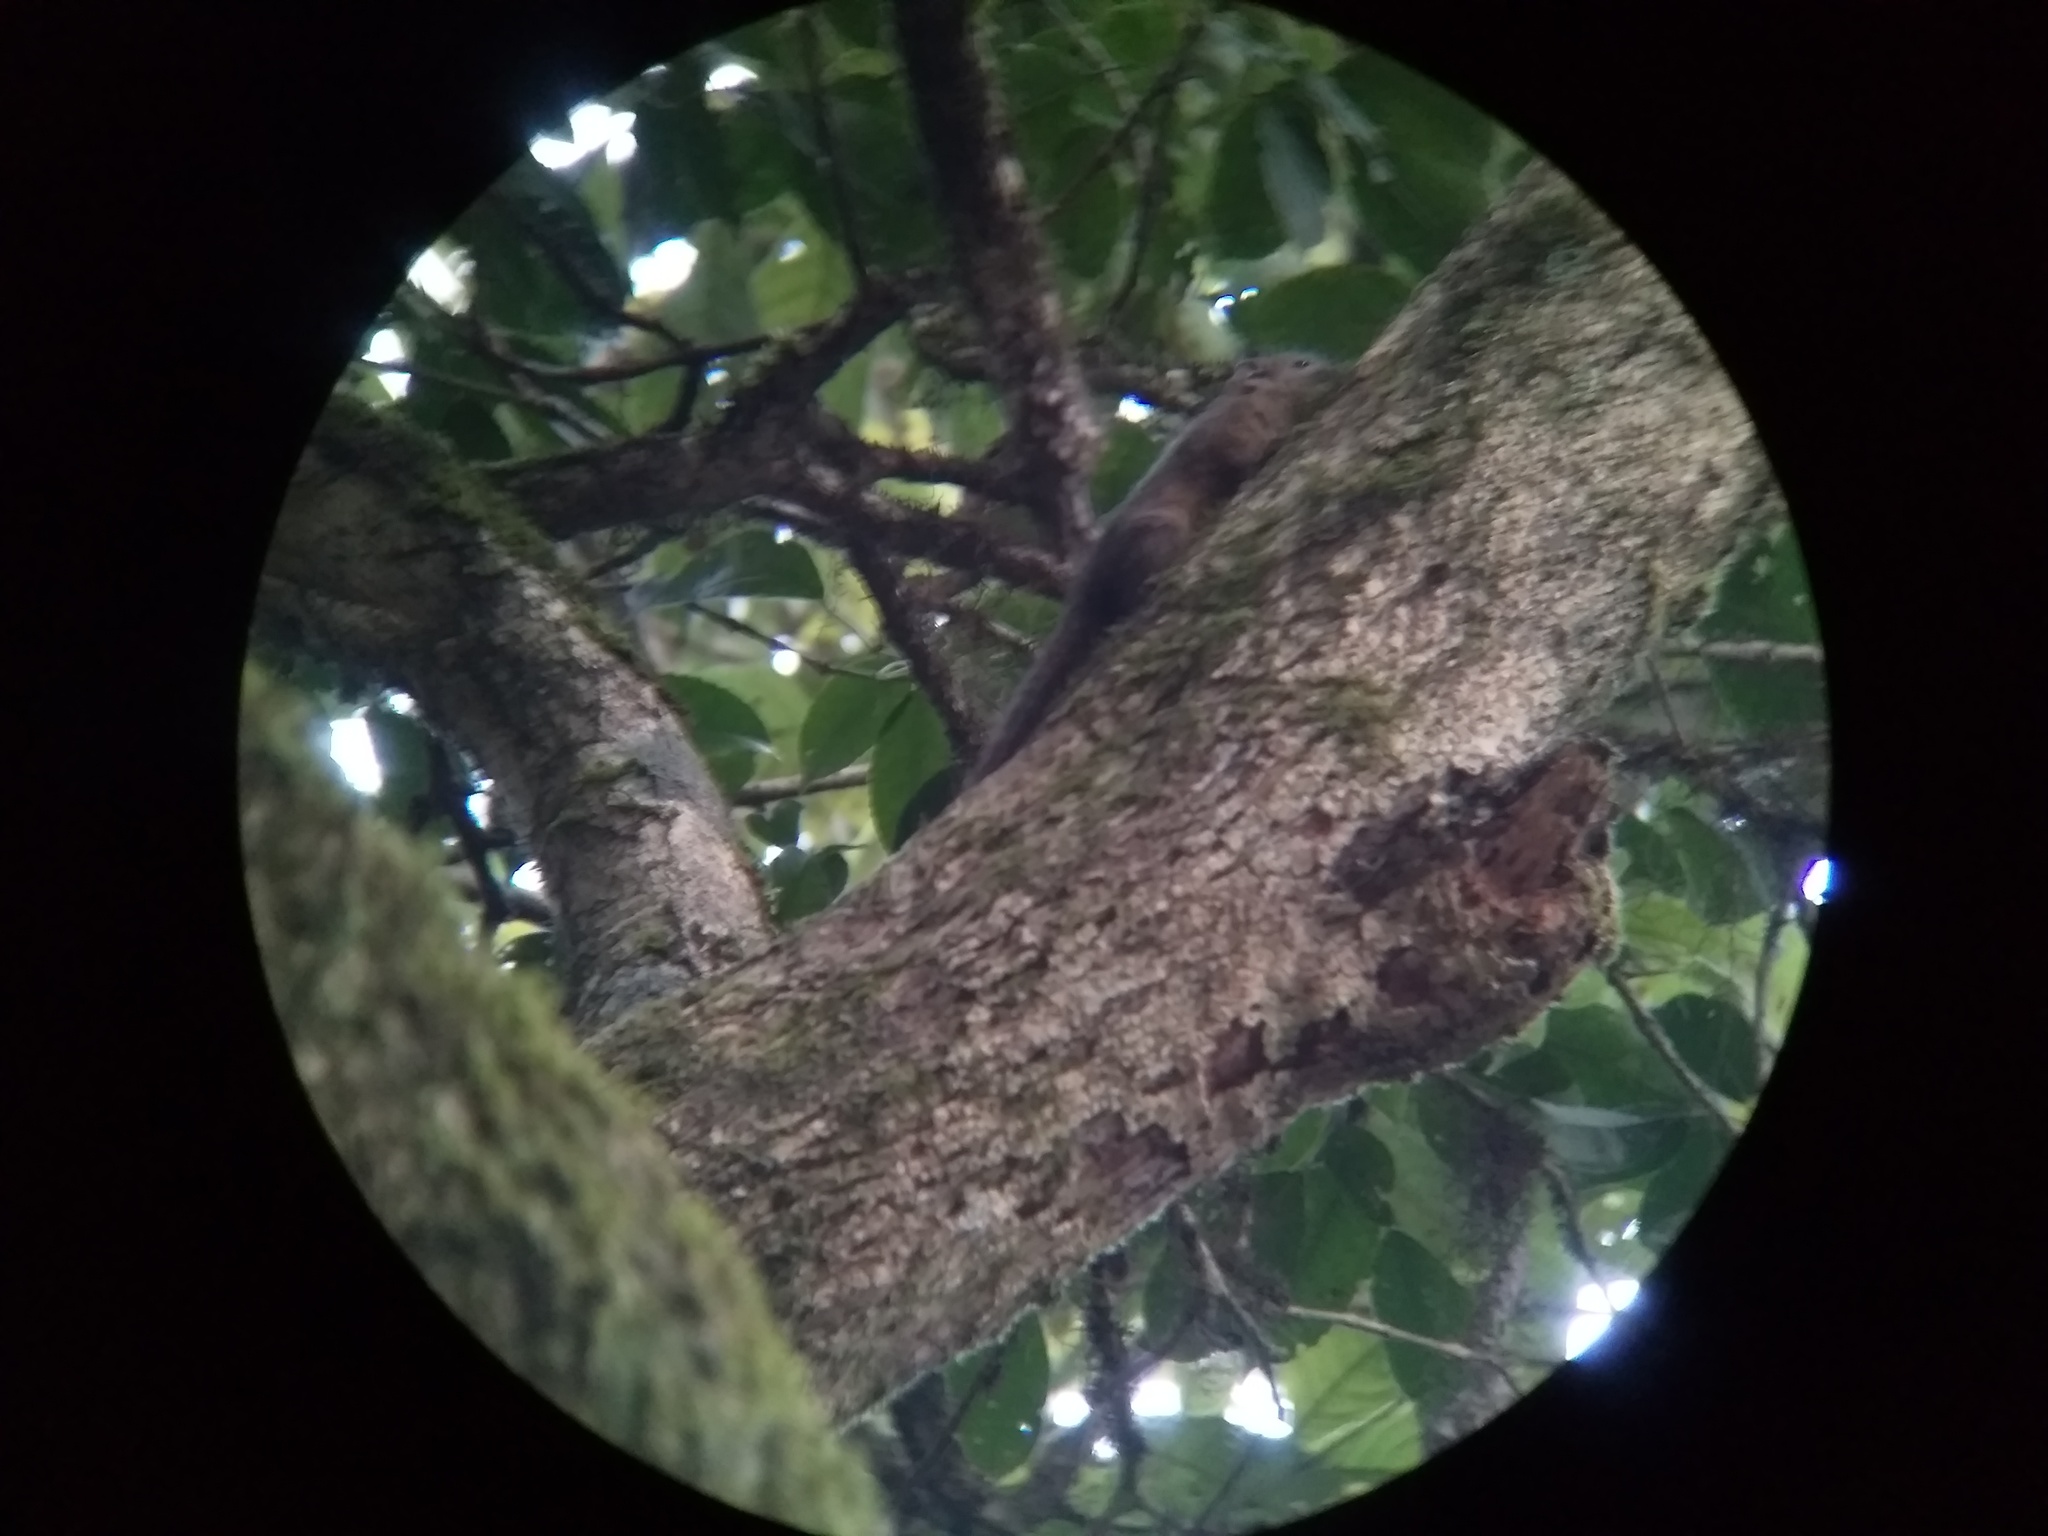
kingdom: Animalia
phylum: Chordata
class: Mammalia
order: Rodentia
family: Sciuridae
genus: Funambulus
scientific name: Funambulus sublineatus
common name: Dusky palm squirrel
